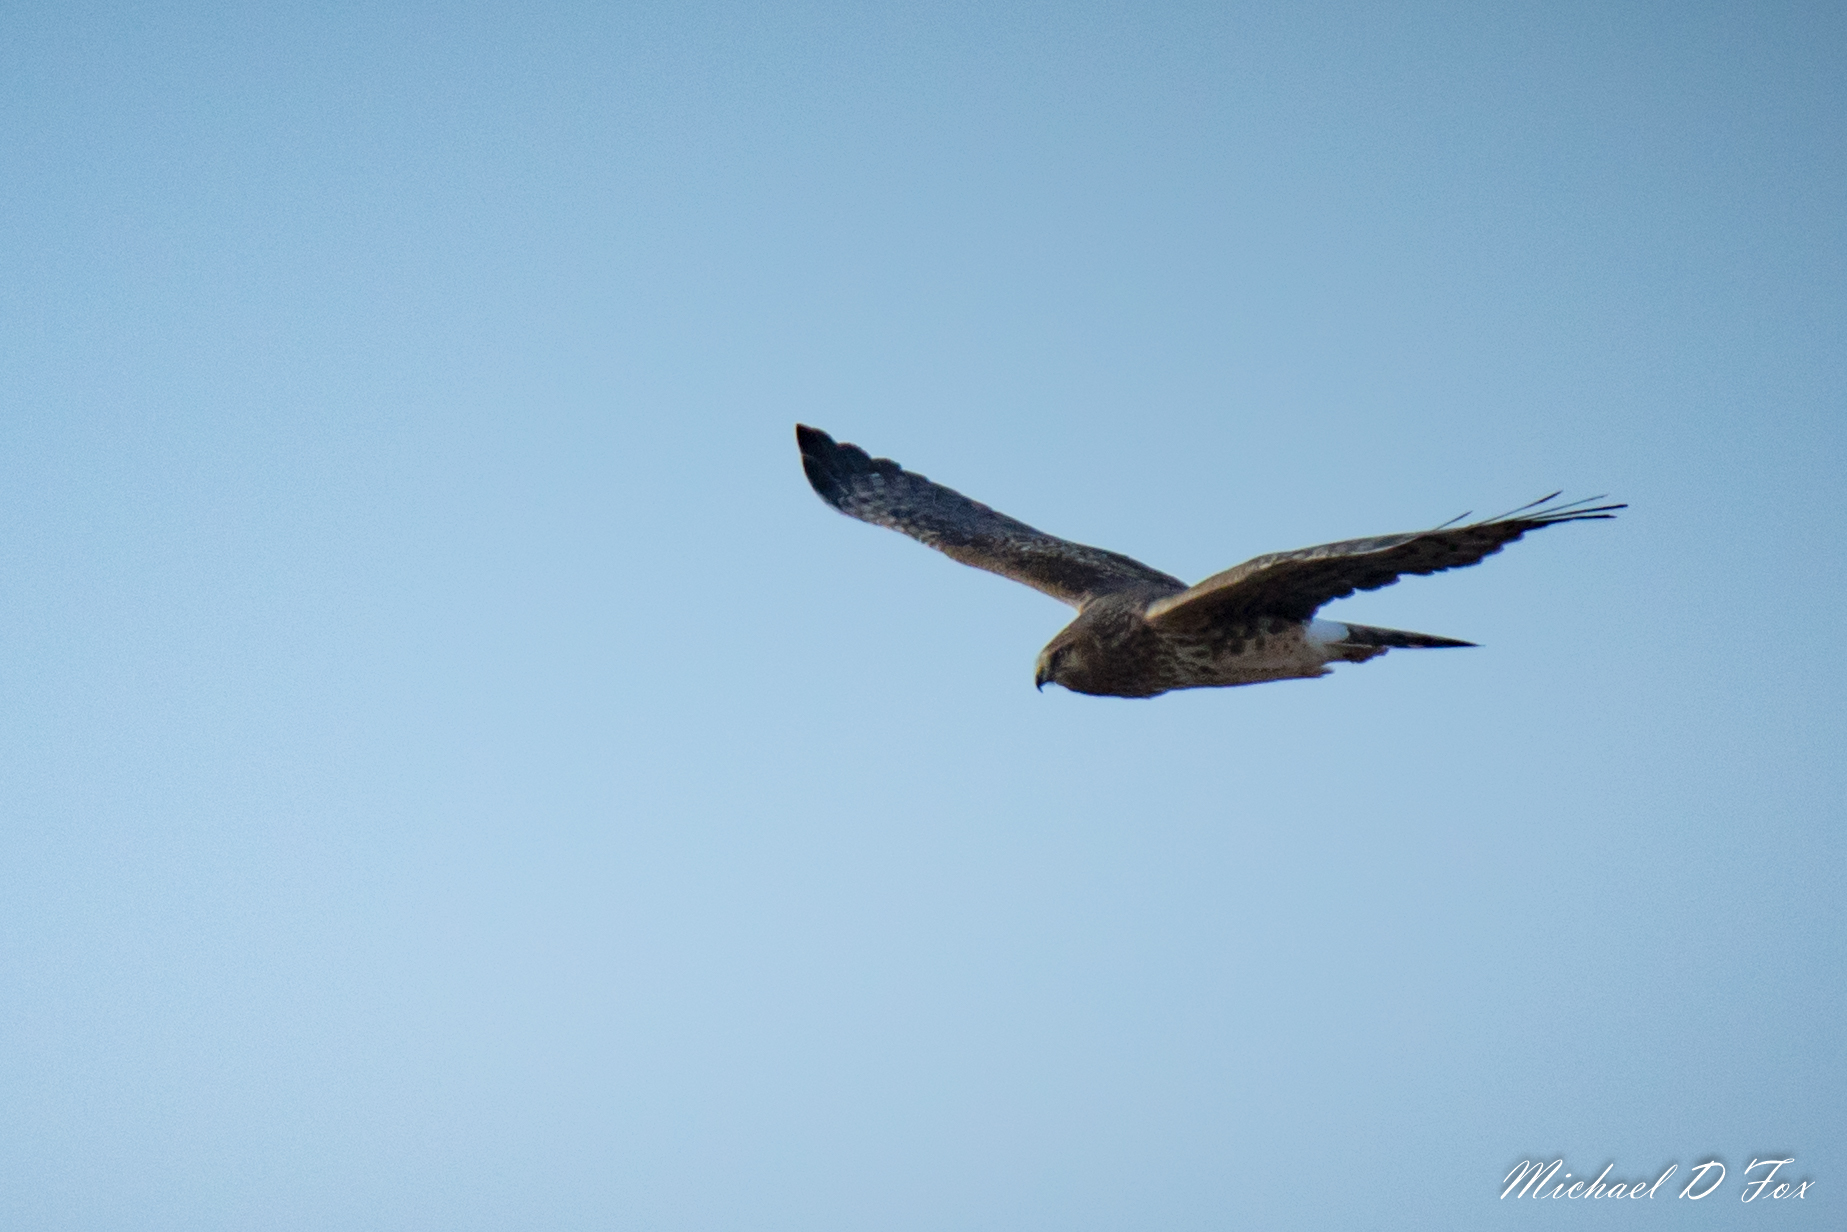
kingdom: Animalia
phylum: Chordata
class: Aves
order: Accipitriformes
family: Accipitridae
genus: Circus
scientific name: Circus cyaneus
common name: Hen harrier
